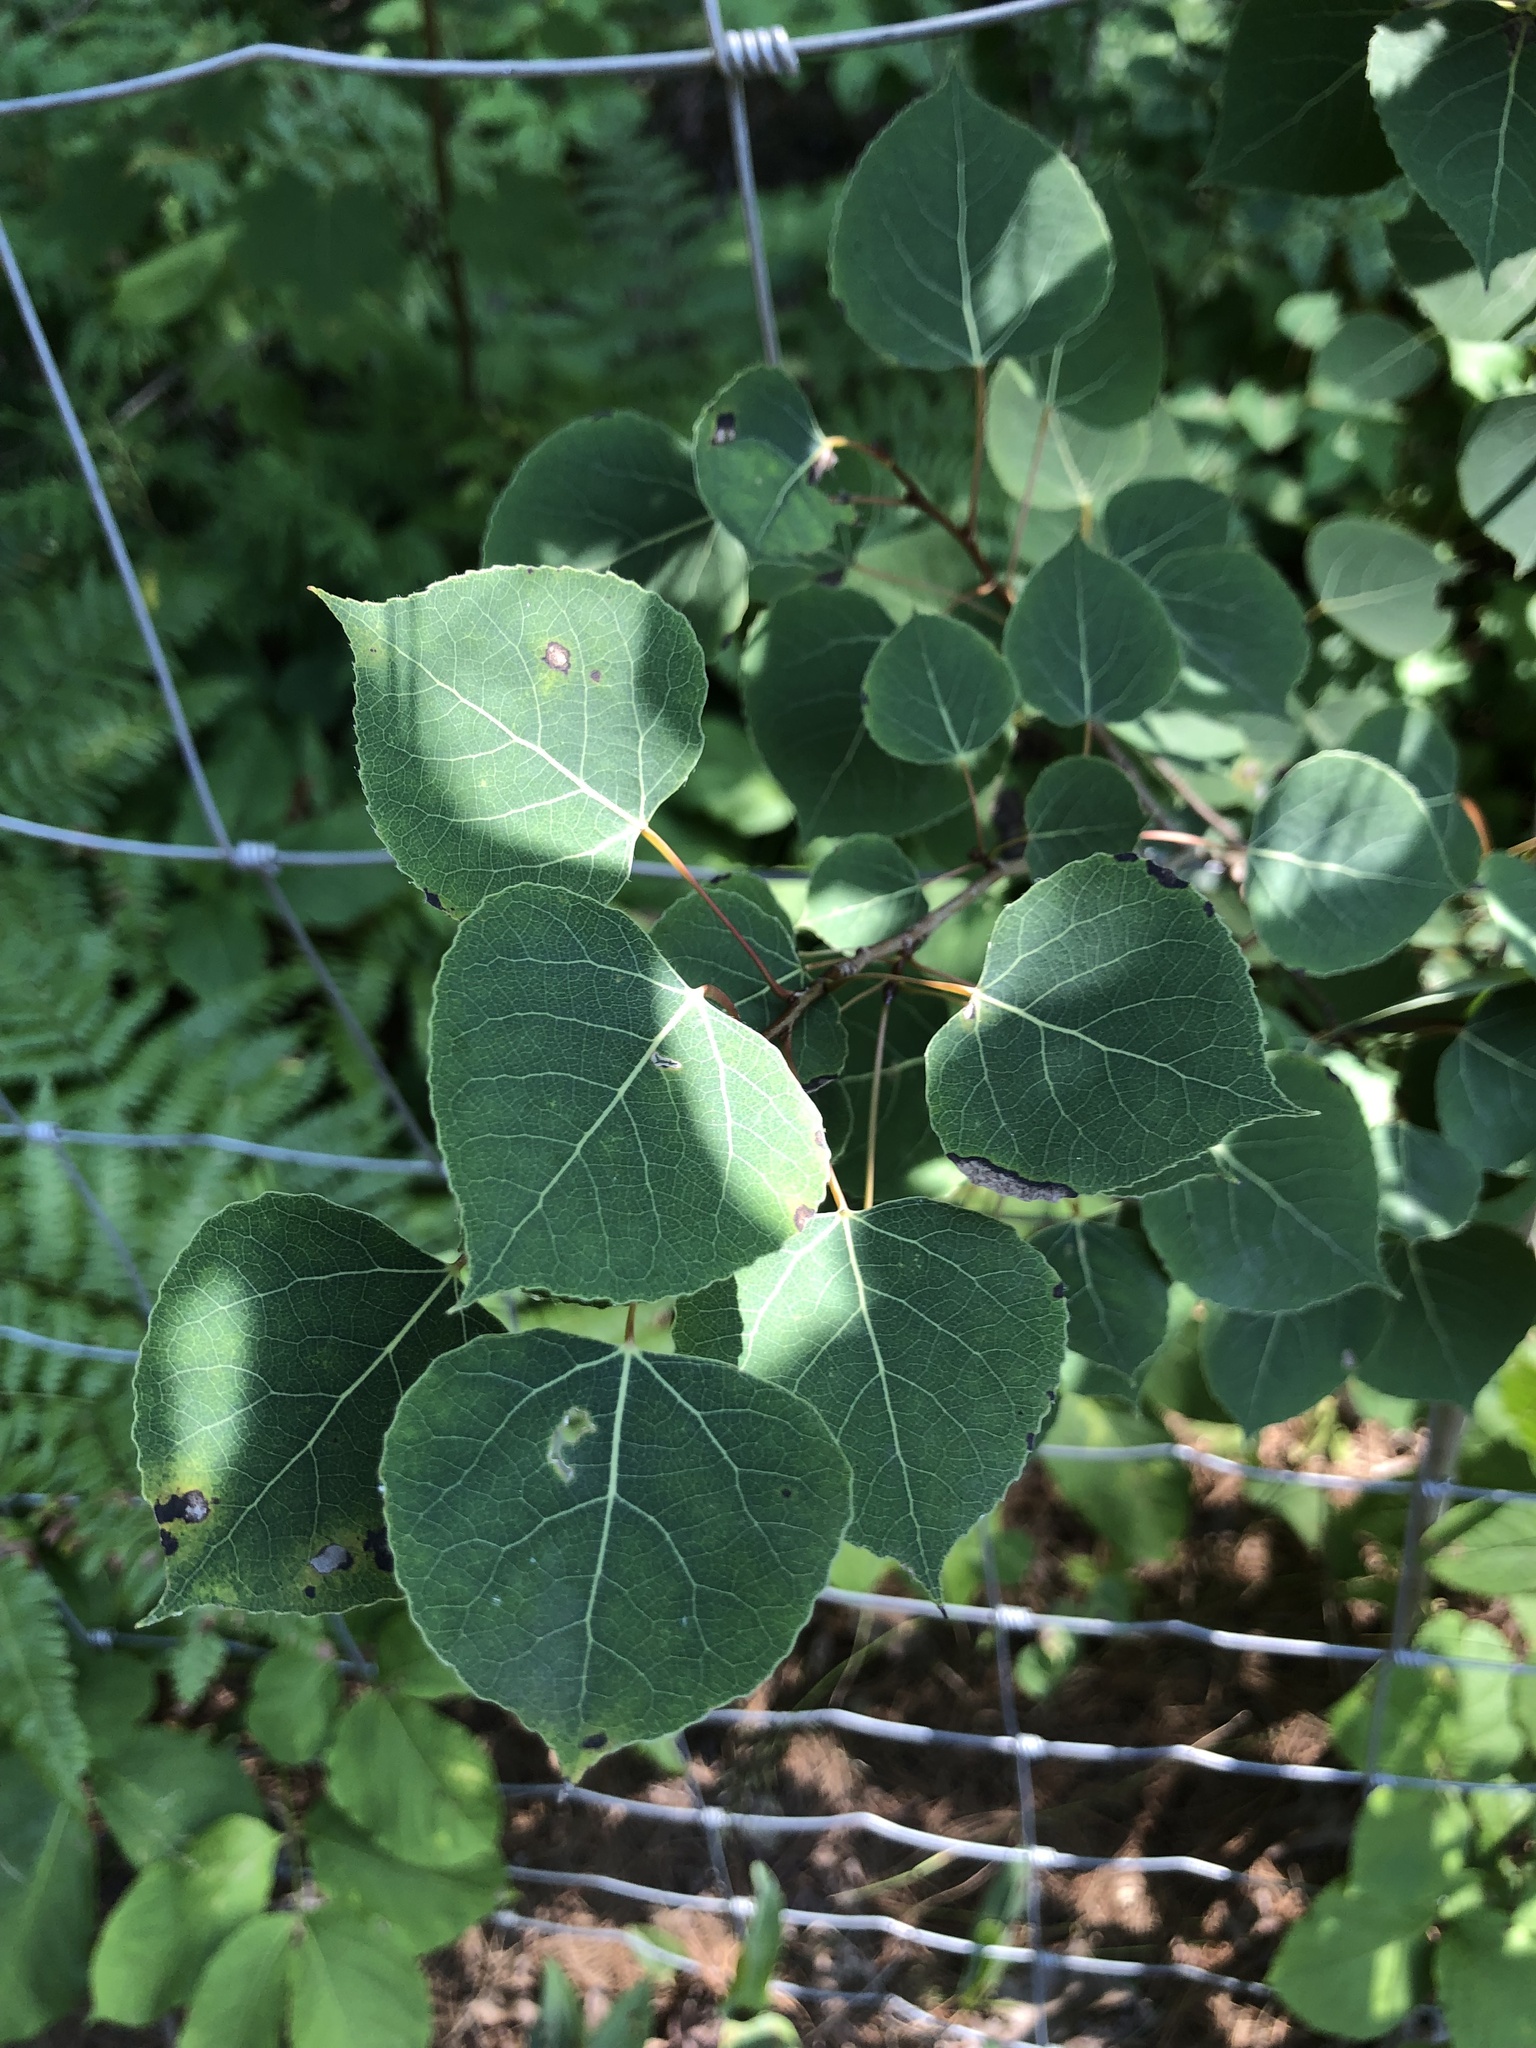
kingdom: Plantae
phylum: Tracheophyta
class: Magnoliopsida
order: Malpighiales
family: Salicaceae
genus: Populus
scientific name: Populus tremuloides
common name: Quaking aspen
